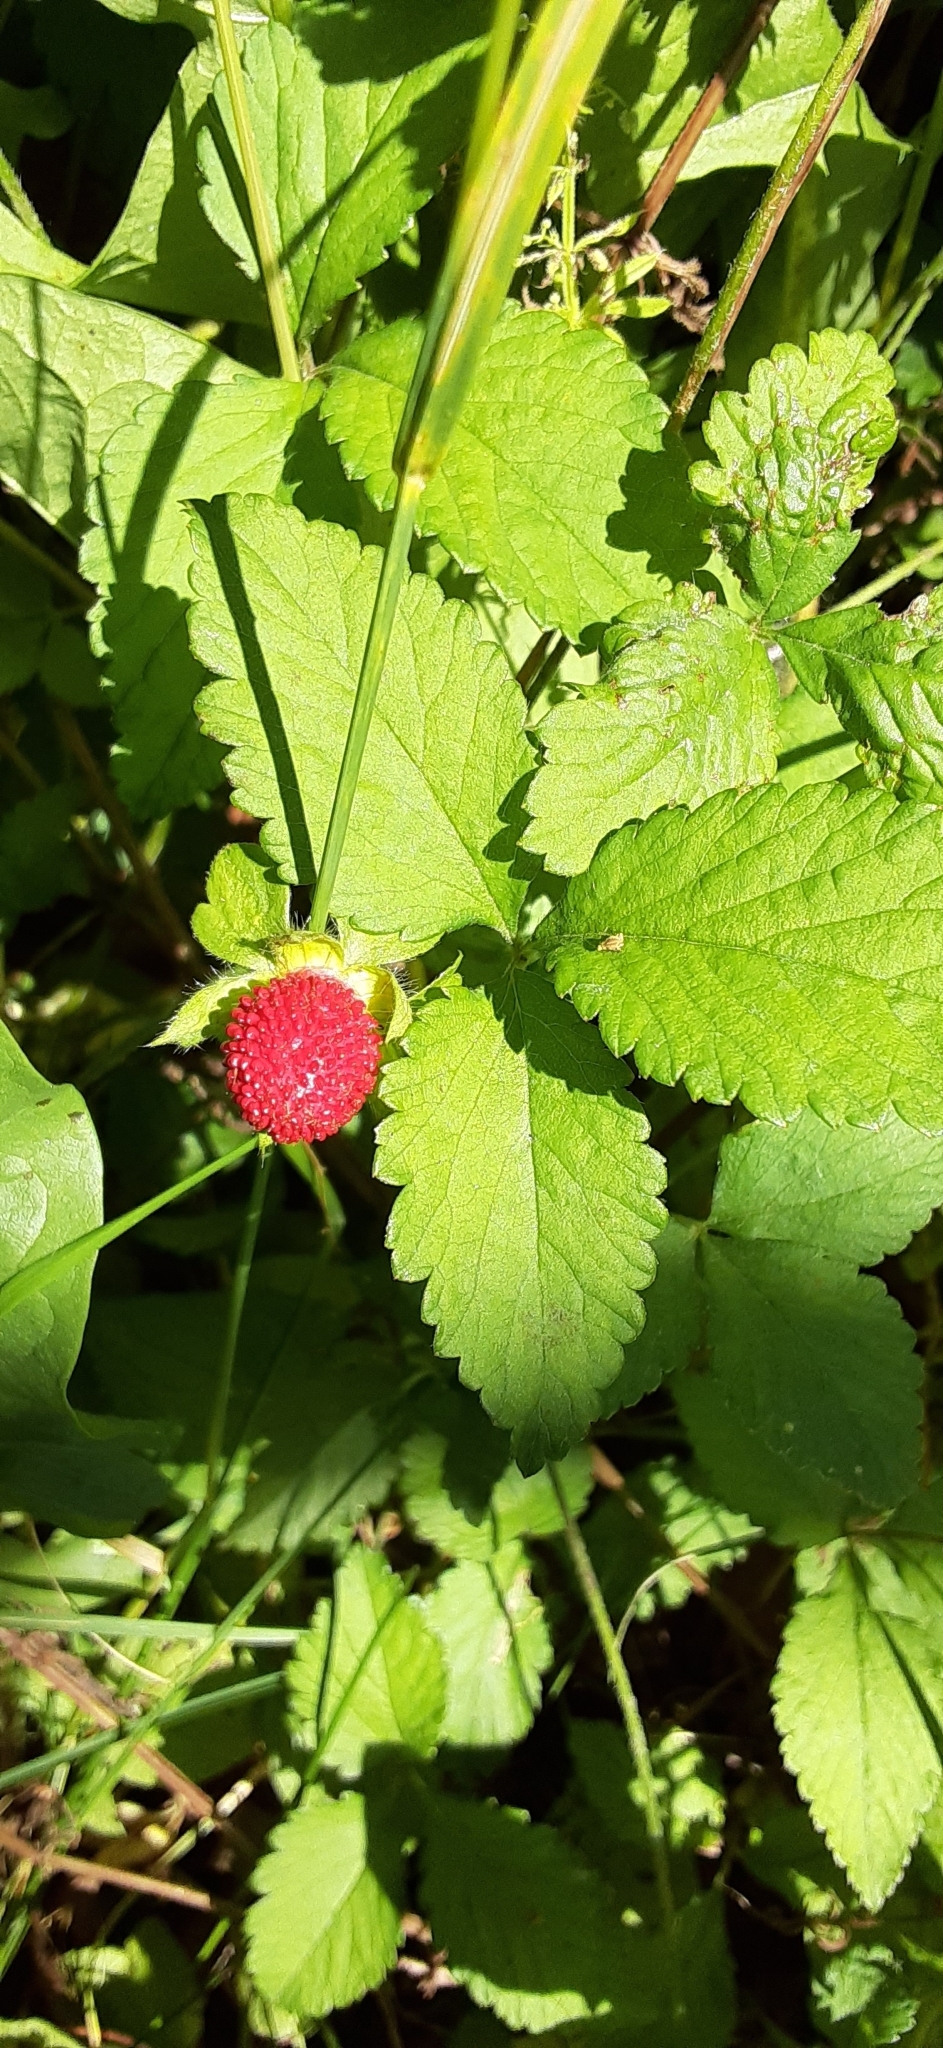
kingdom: Plantae
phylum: Tracheophyta
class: Magnoliopsida
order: Rosales
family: Rosaceae
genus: Potentilla
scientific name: Potentilla indica
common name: Yellow-flowered strawberry
